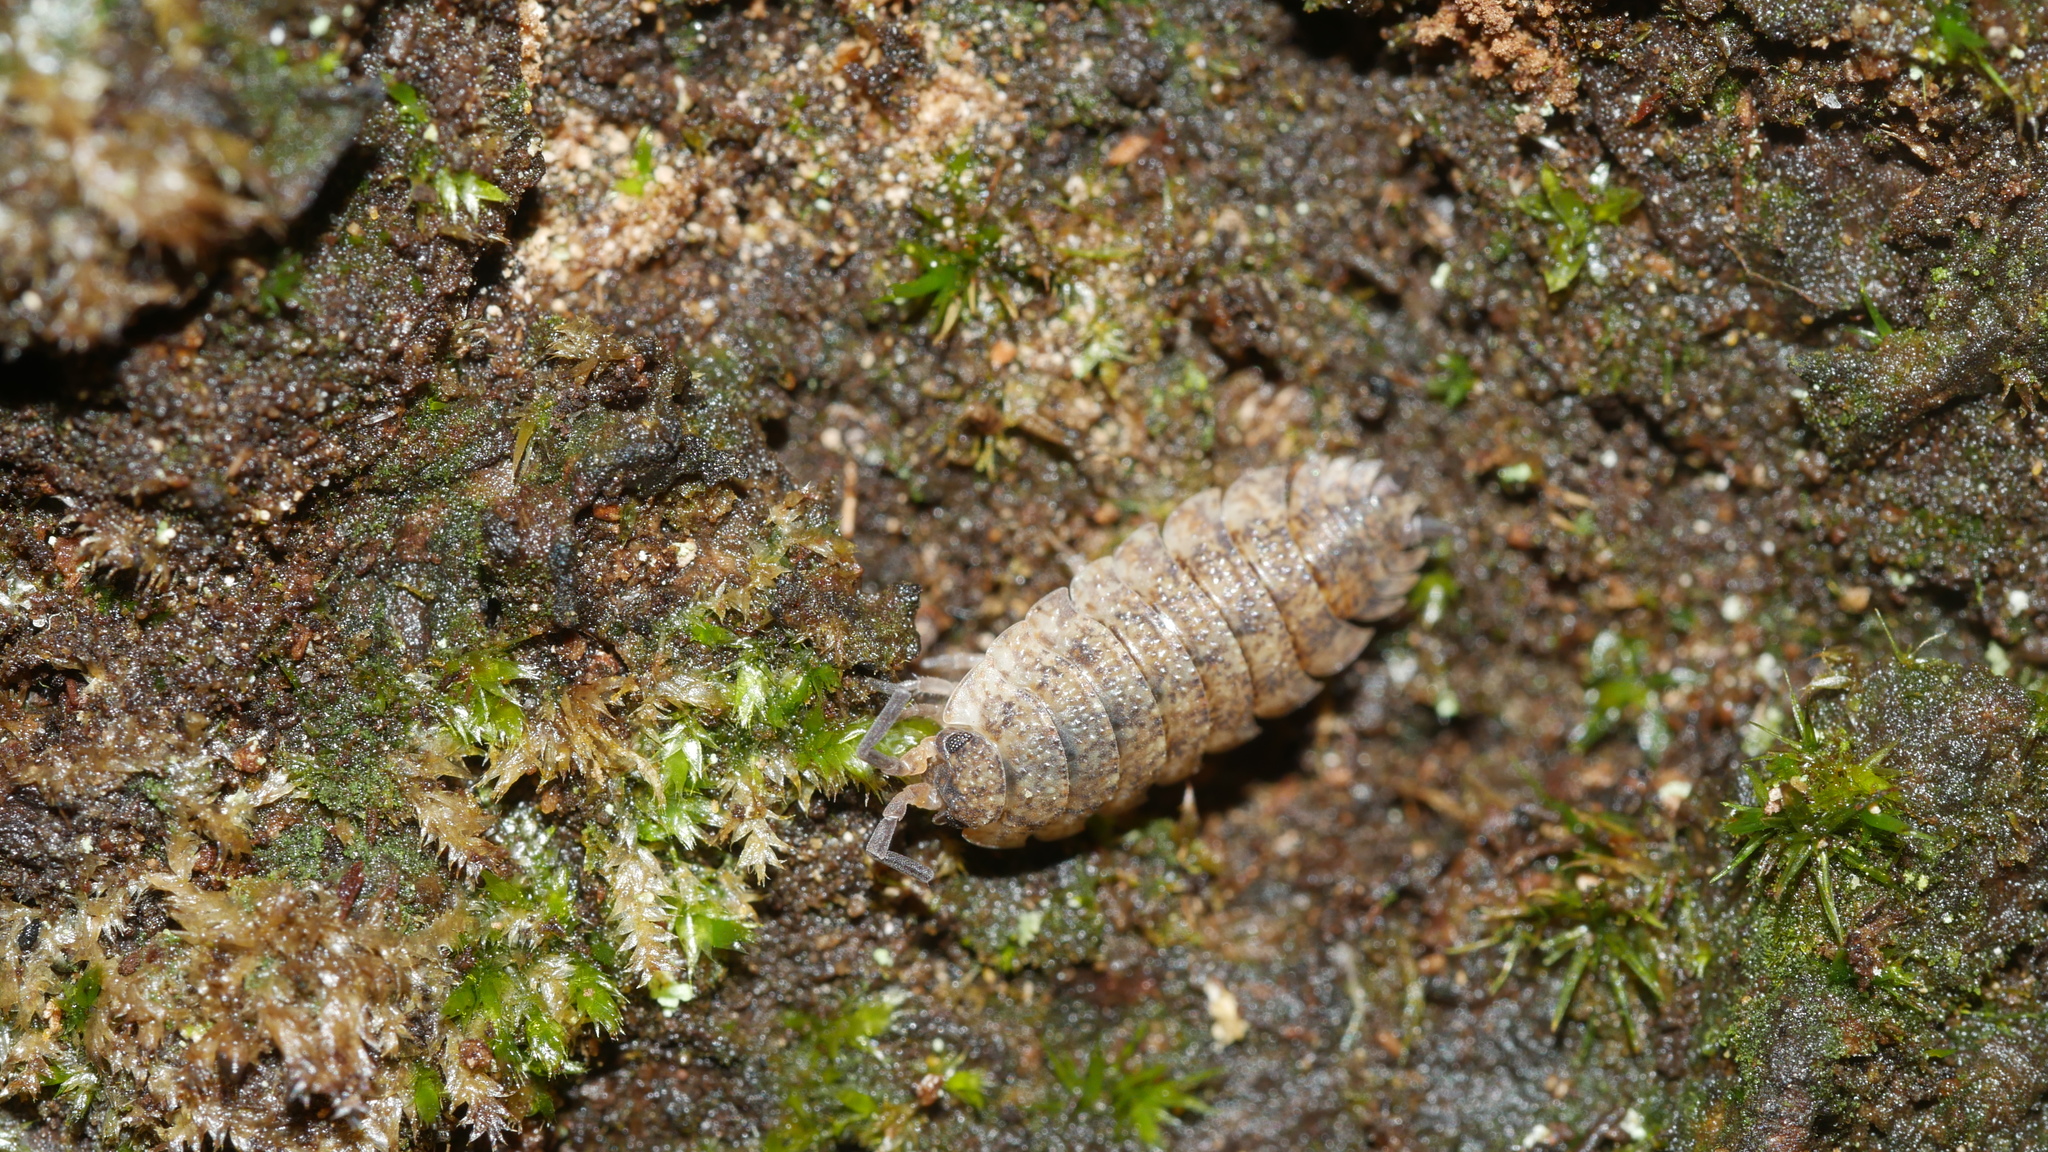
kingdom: Animalia
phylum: Arthropoda
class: Malacostraca
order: Isopoda
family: Porcellionidae
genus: Porcellio
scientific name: Porcellio scaber
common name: Common rough woodlouse
